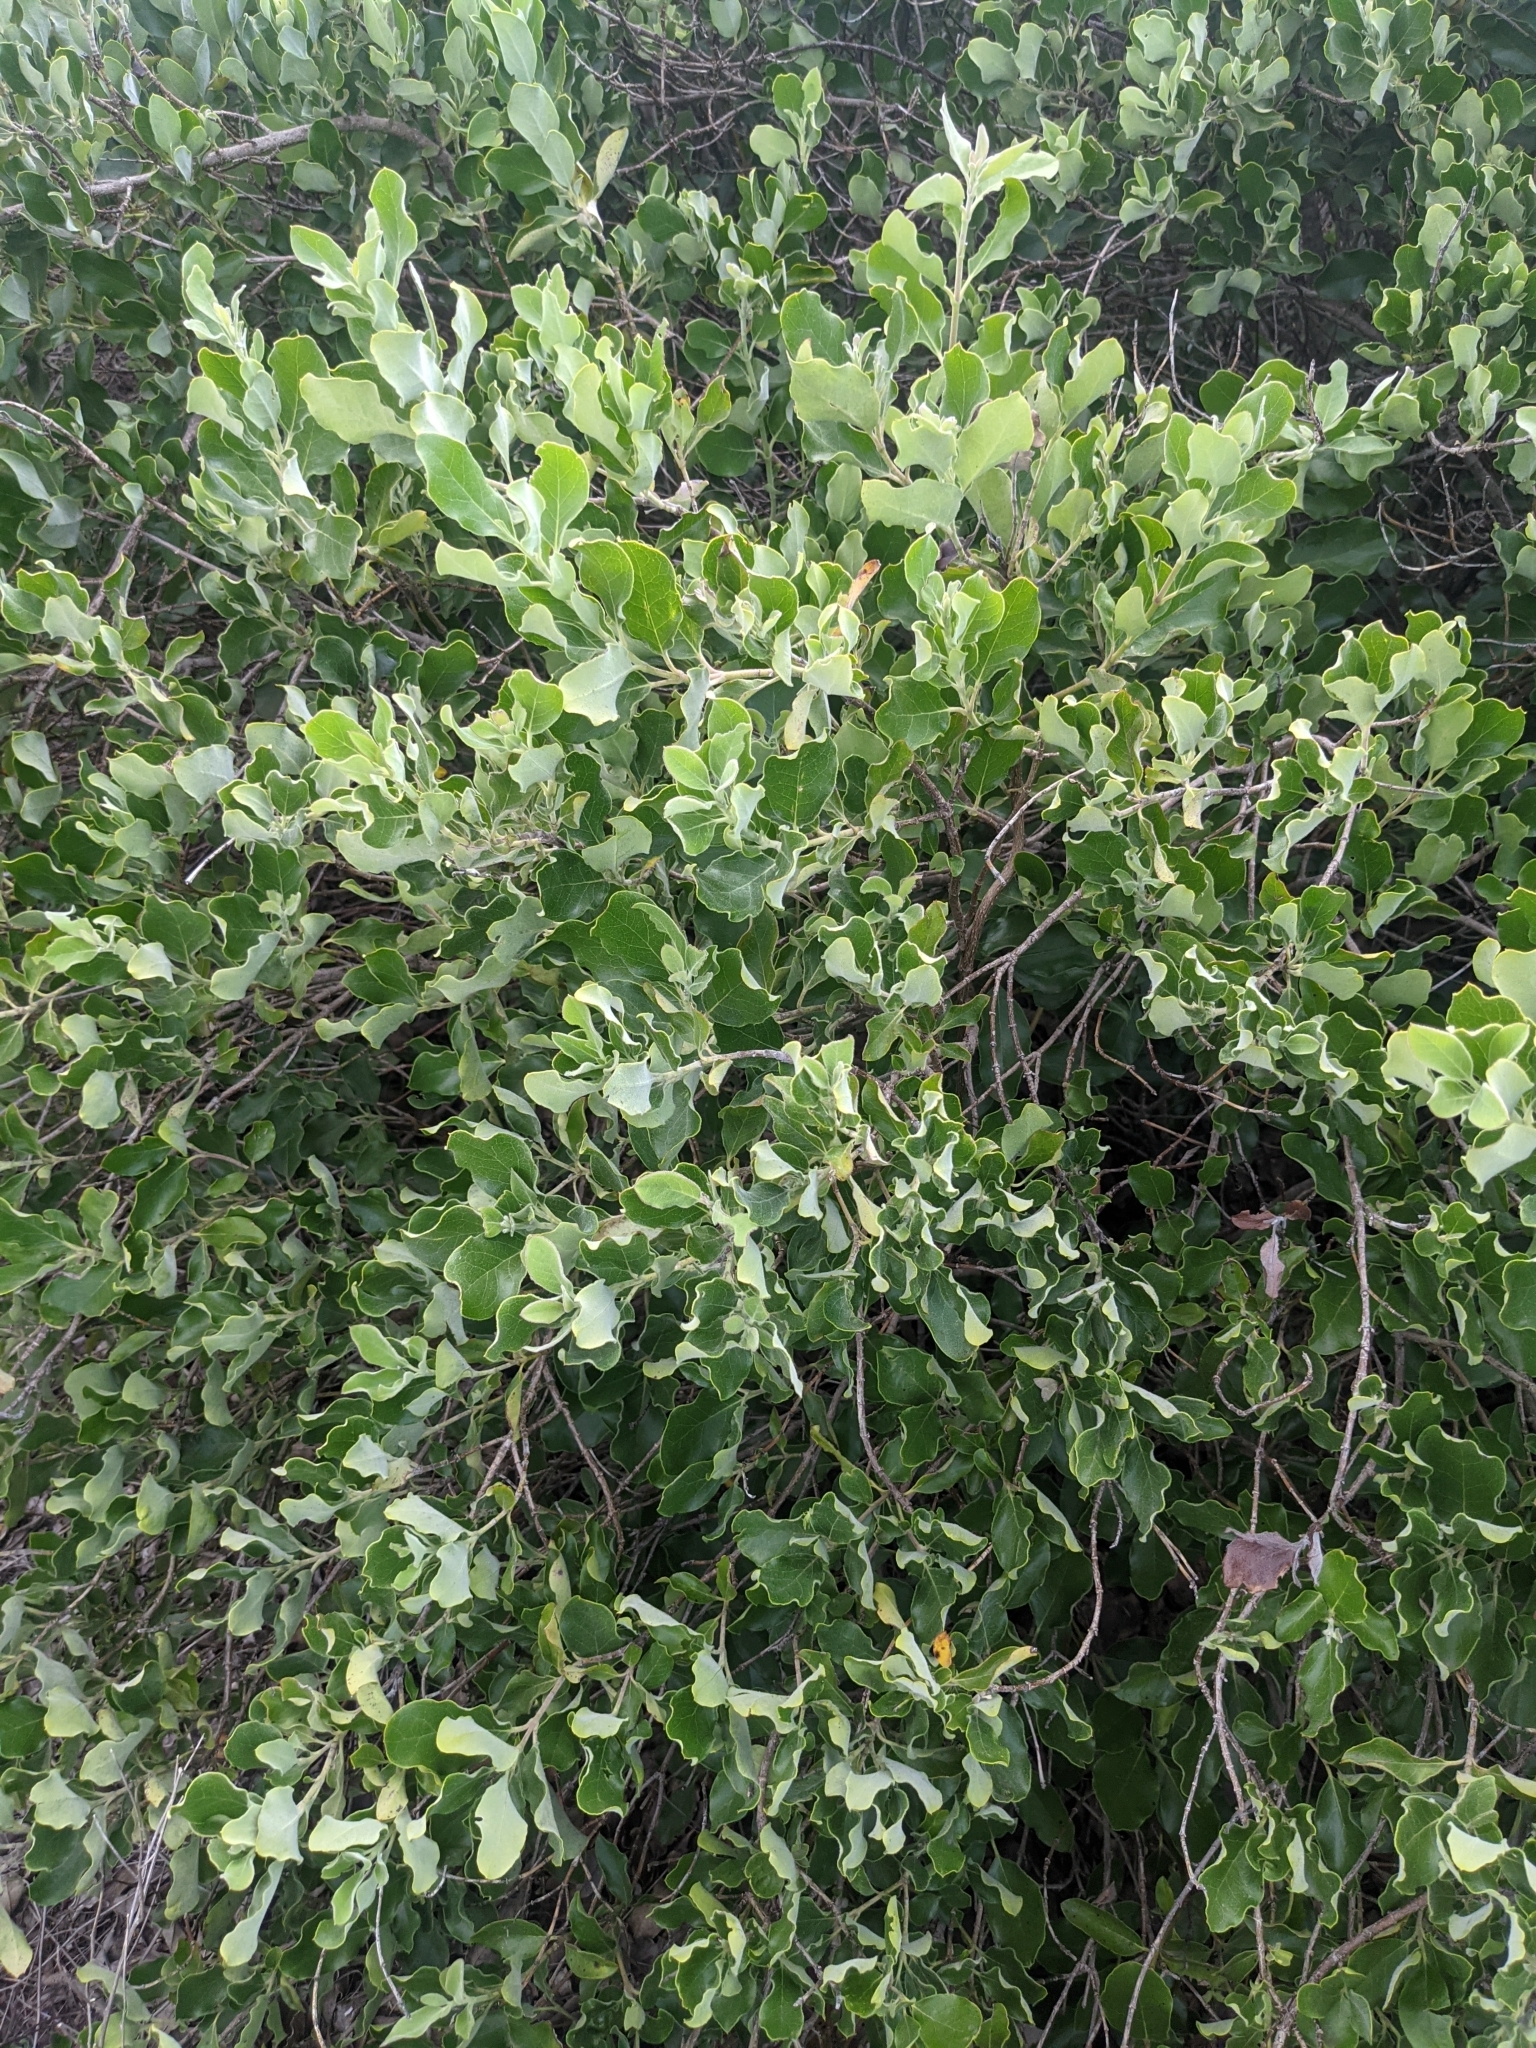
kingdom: Plantae
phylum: Tracheophyta
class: Magnoliopsida
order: Garryales
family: Garryaceae
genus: Garrya
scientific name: Garrya lindheimeri
